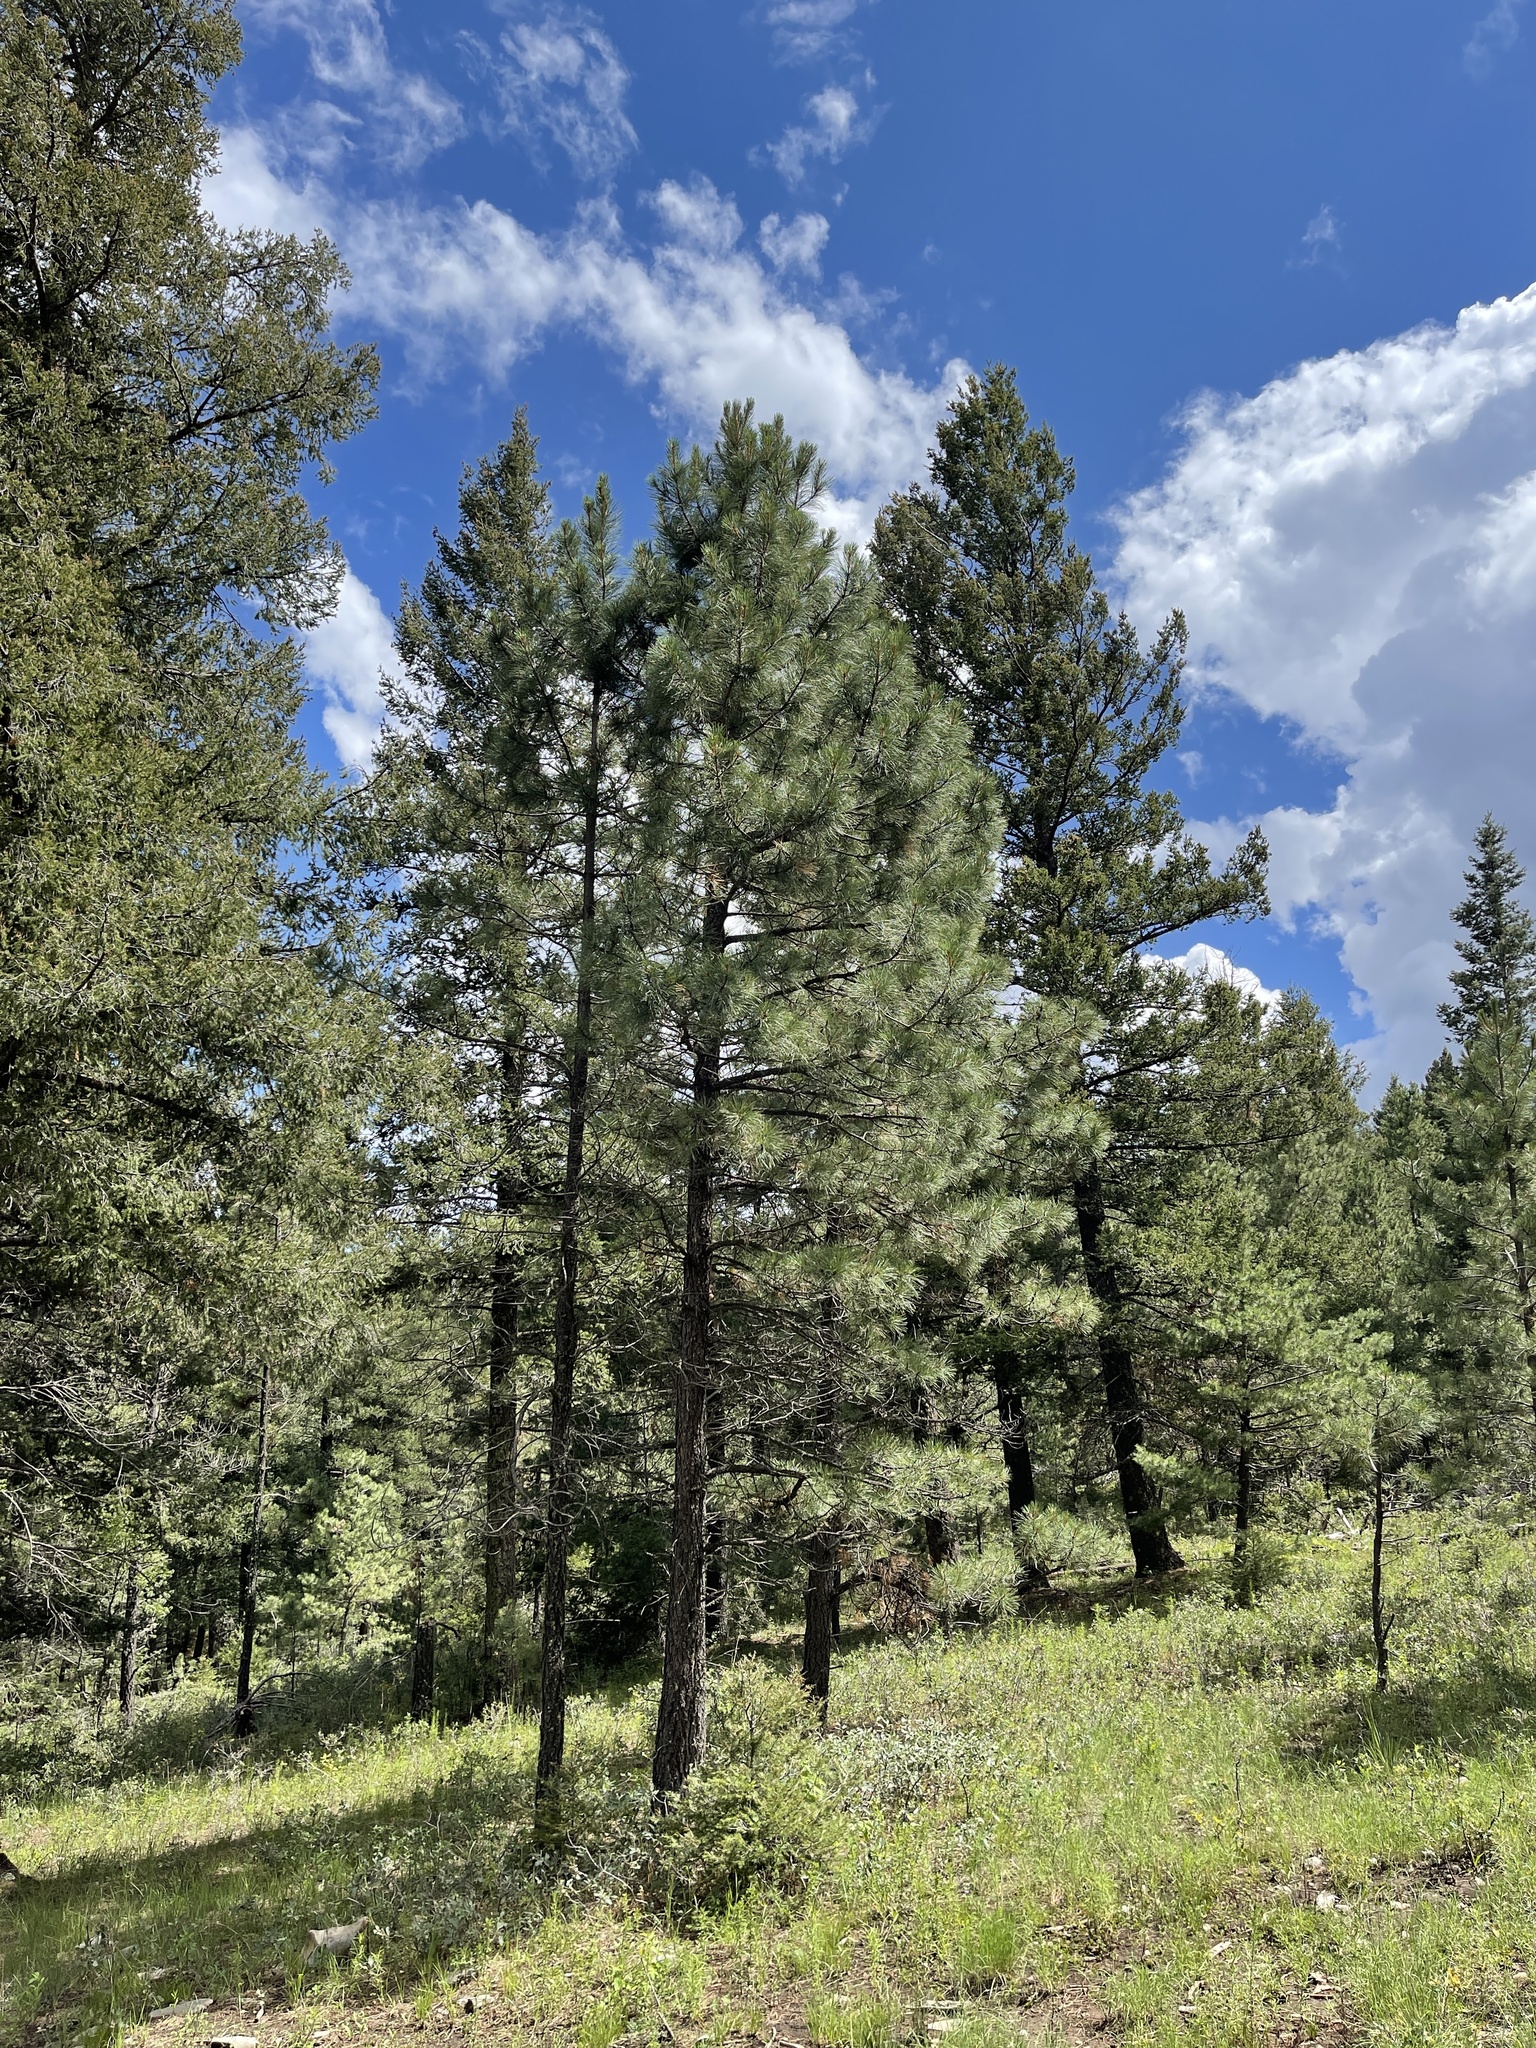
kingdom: Plantae
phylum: Tracheophyta
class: Pinopsida
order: Pinales
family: Pinaceae
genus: Pinus
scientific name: Pinus ponderosa
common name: Western yellow-pine
